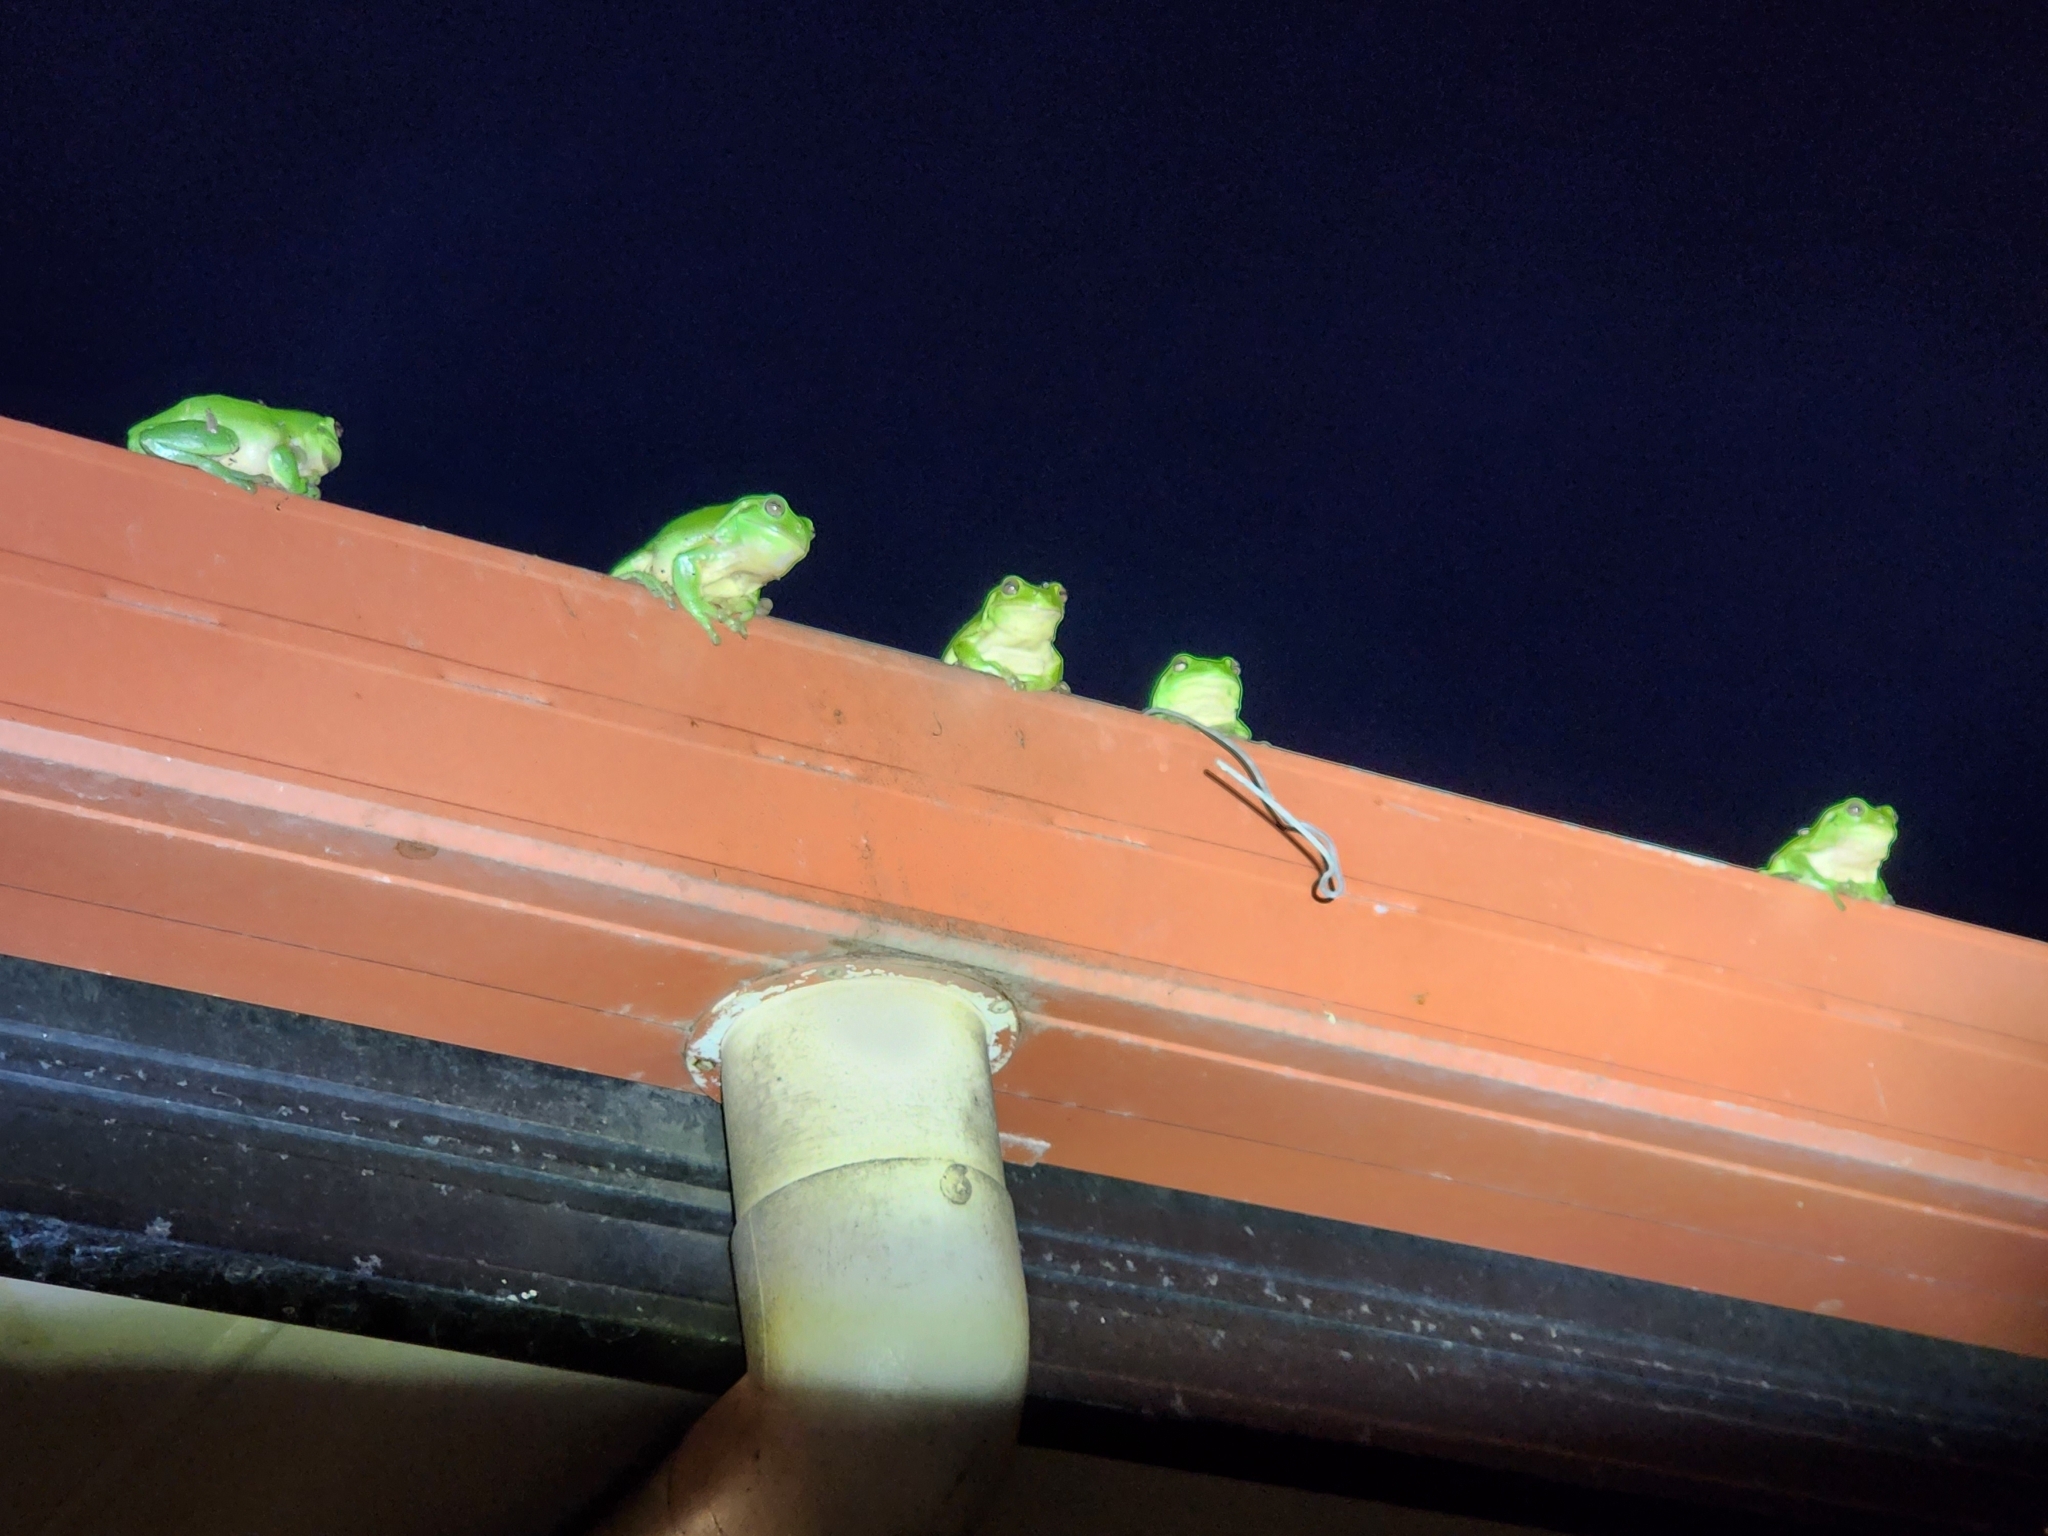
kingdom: Animalia
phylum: Chordata
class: Amphibia
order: Anura
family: Pelodryadidae
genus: Ranoidea
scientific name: Ranoidea caerulea
